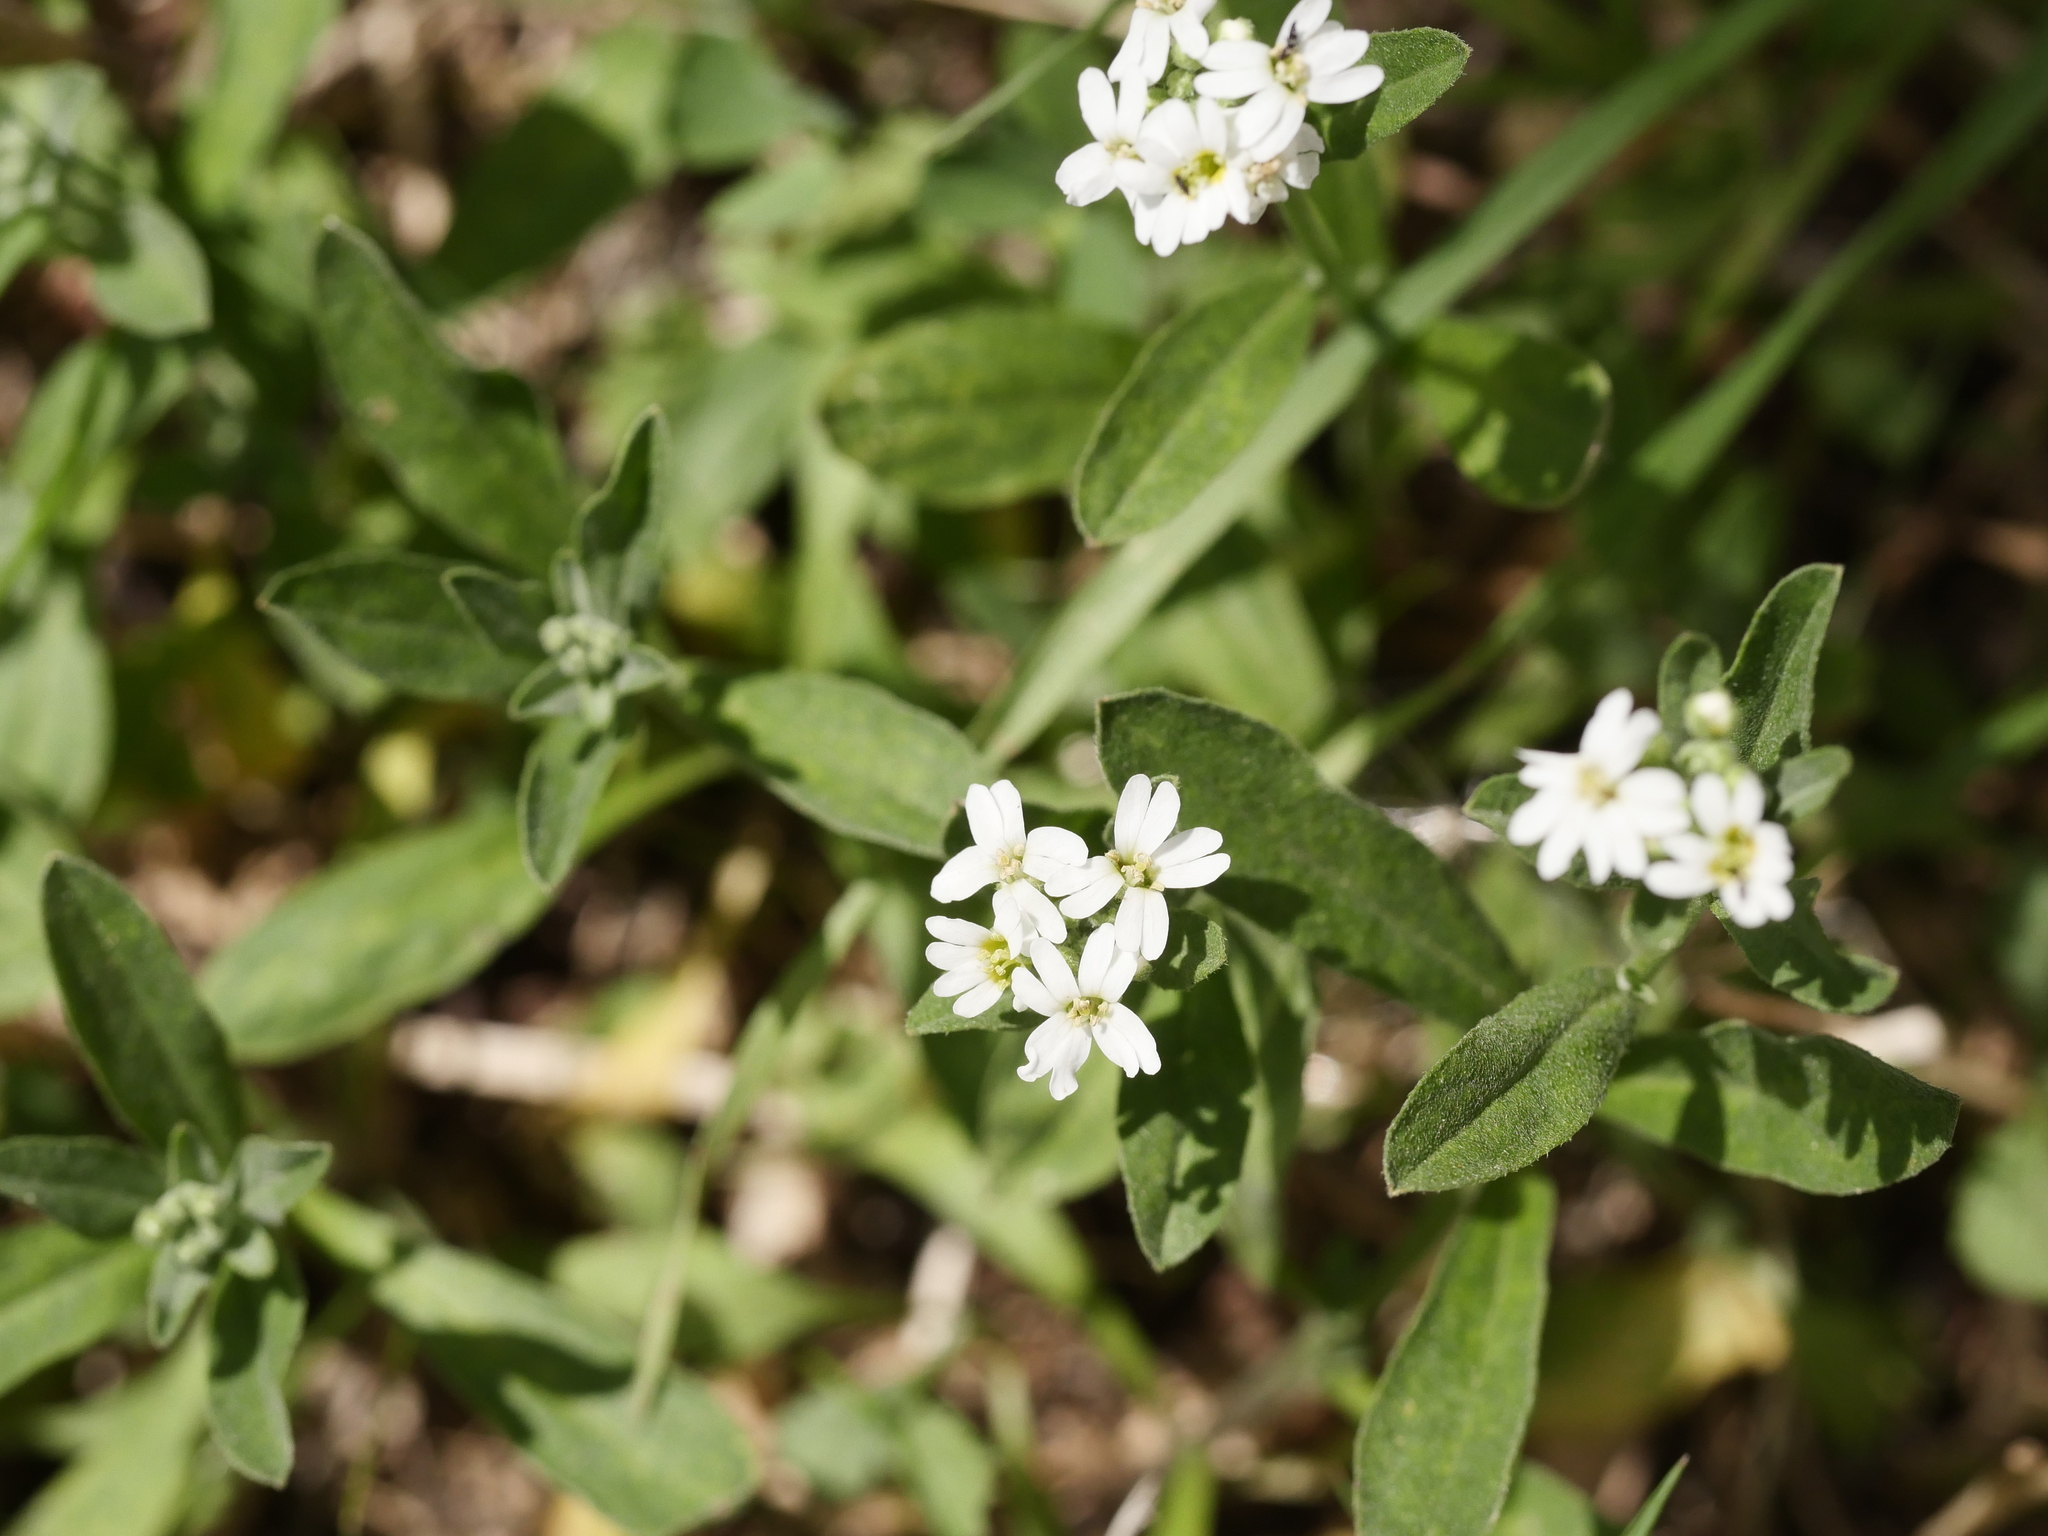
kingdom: Plantae
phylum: Tracheophyta
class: Magnoliopsida
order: Brassicales
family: Brassicaceae
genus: Berteroa
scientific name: Berteroa incana
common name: Hoary alison
